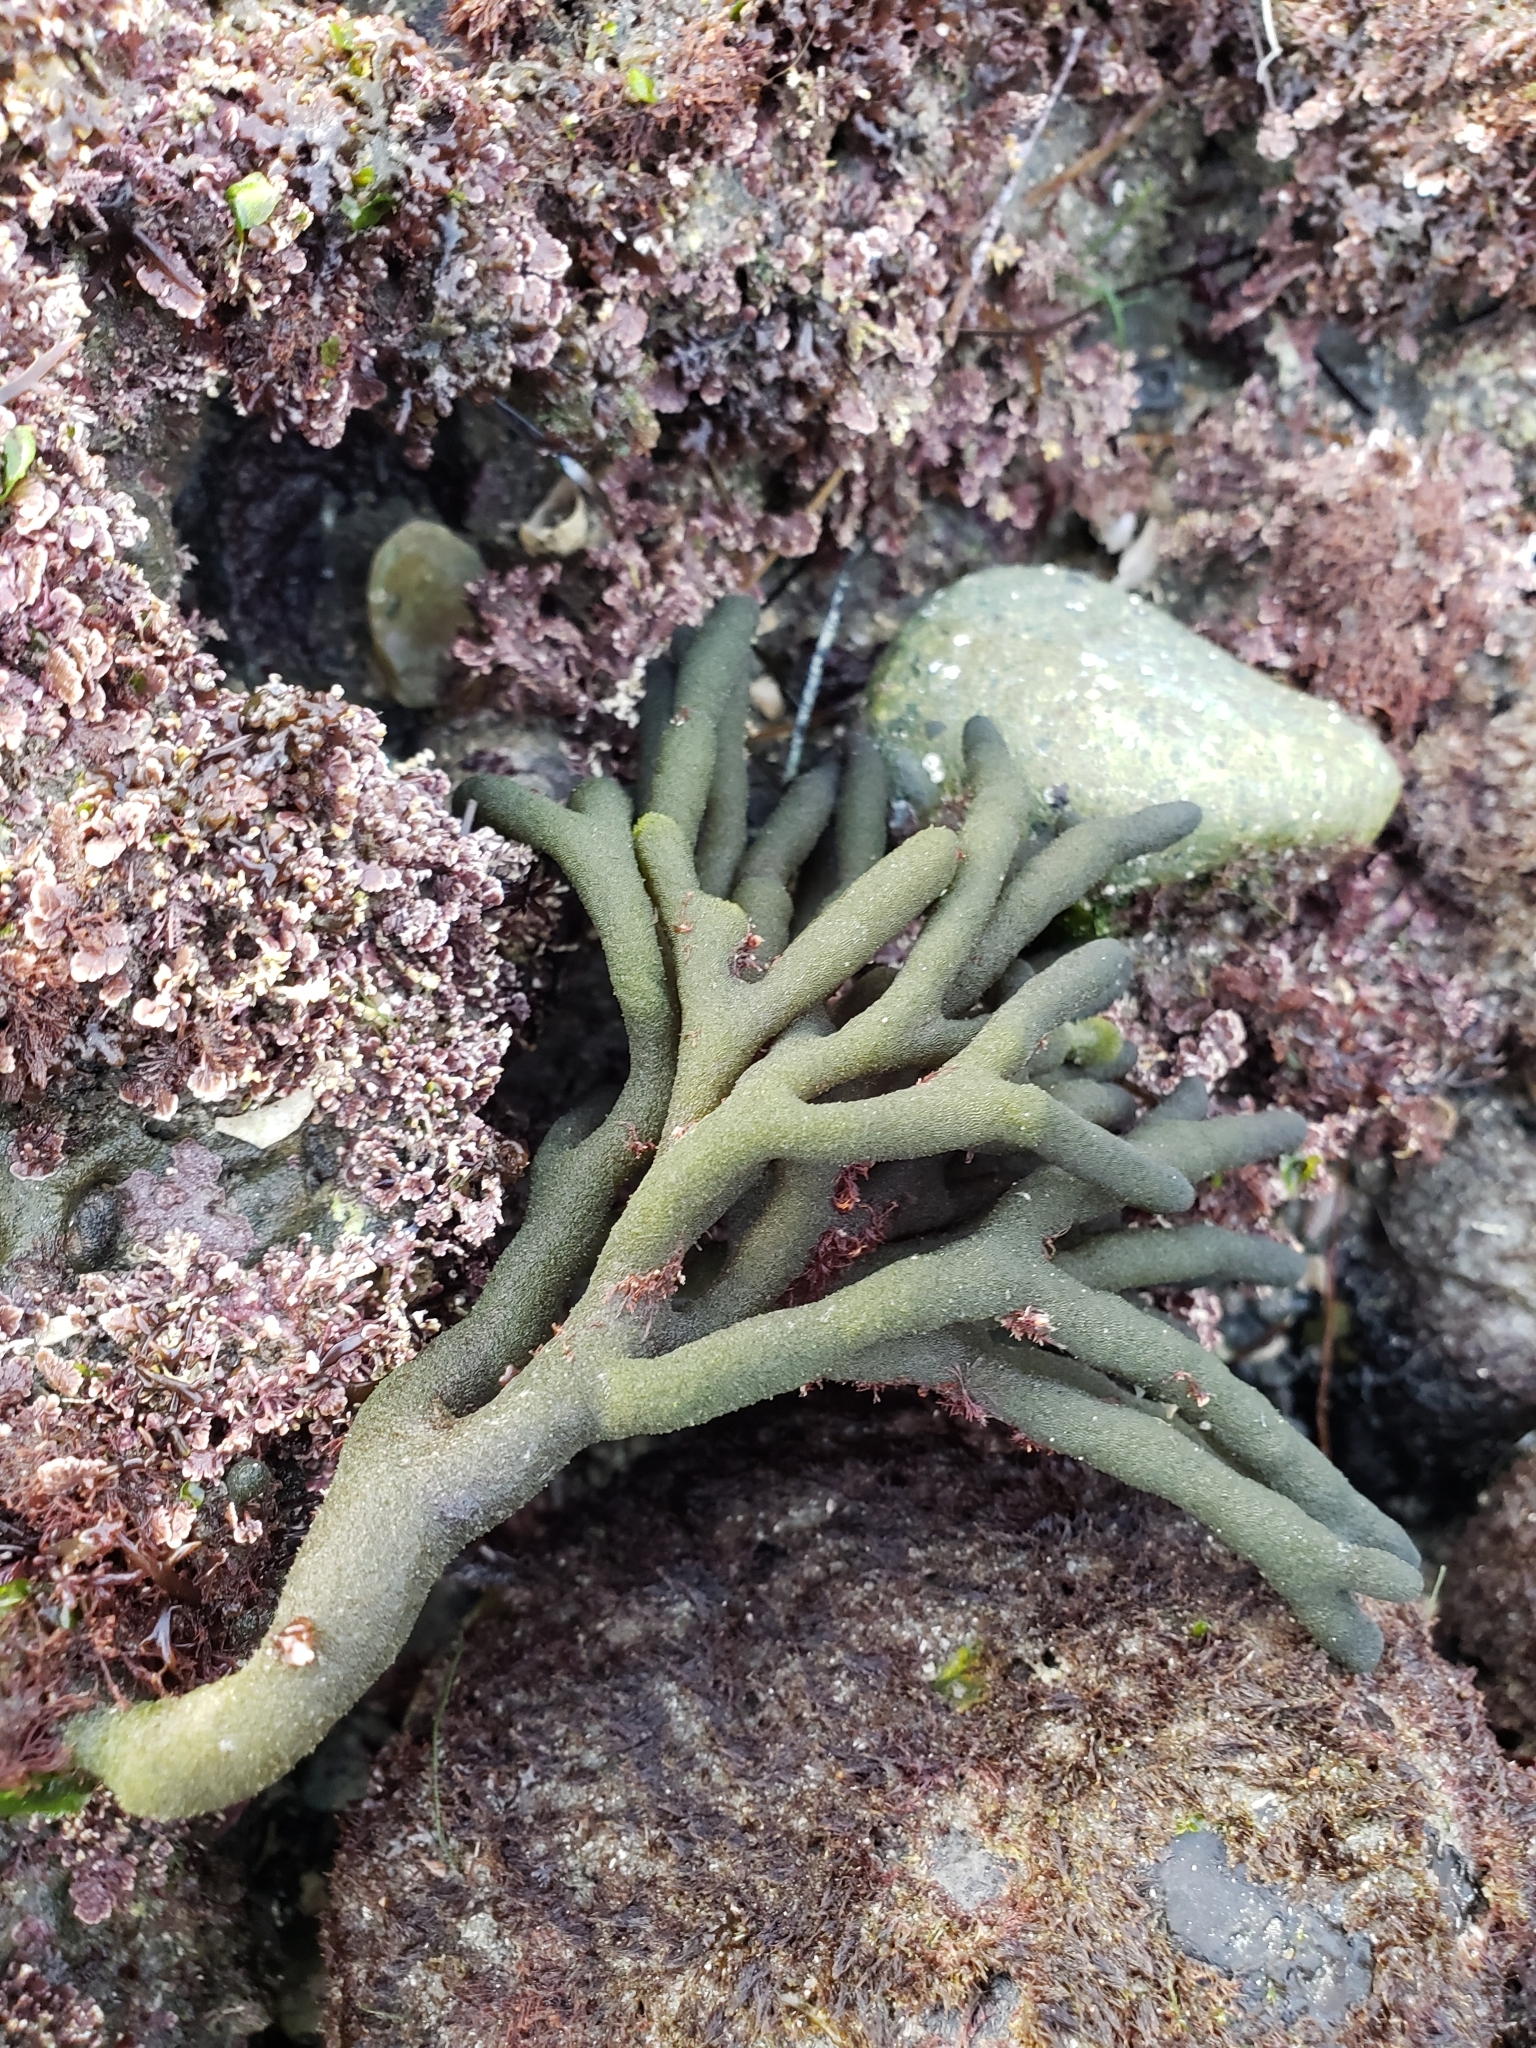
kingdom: Plantae
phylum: Chlorophyta
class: Ulvophyceae
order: Bryopsidales
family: Codiaceae
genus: Codium
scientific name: Codium fragile
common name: Dead man's fingers
